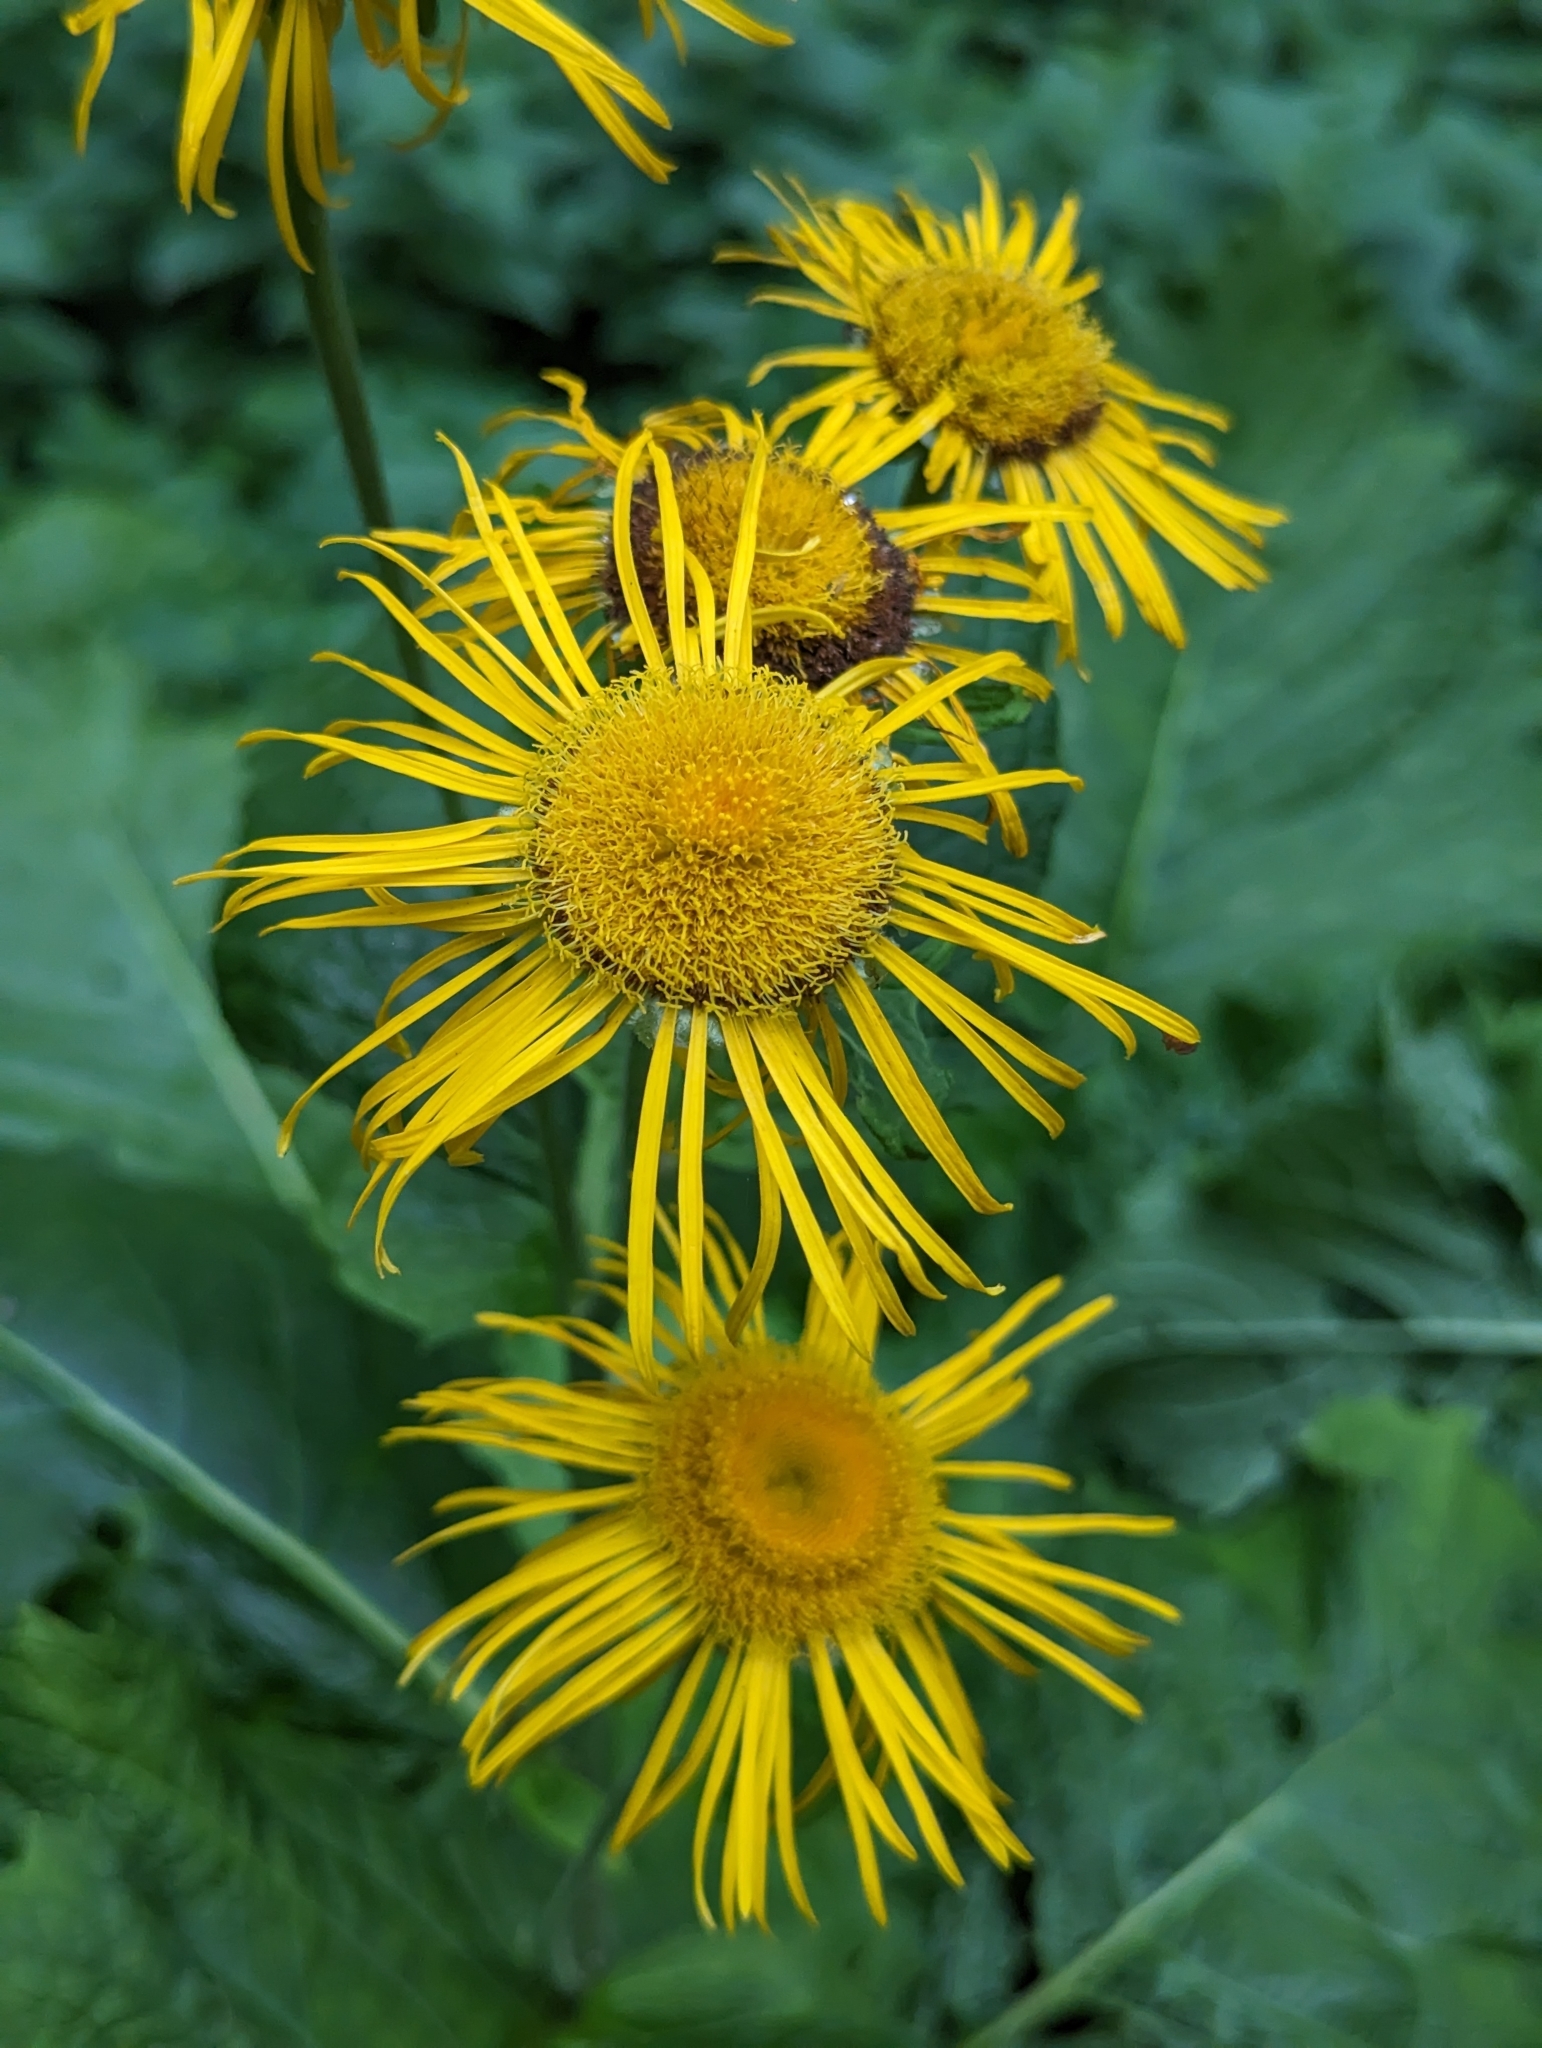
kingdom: Plantae
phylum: Tracheophyta
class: Magnoliopsida
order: Asterales
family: Asteraceae
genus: Telekia
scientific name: Telekia speciosa
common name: Yellow oxeye
